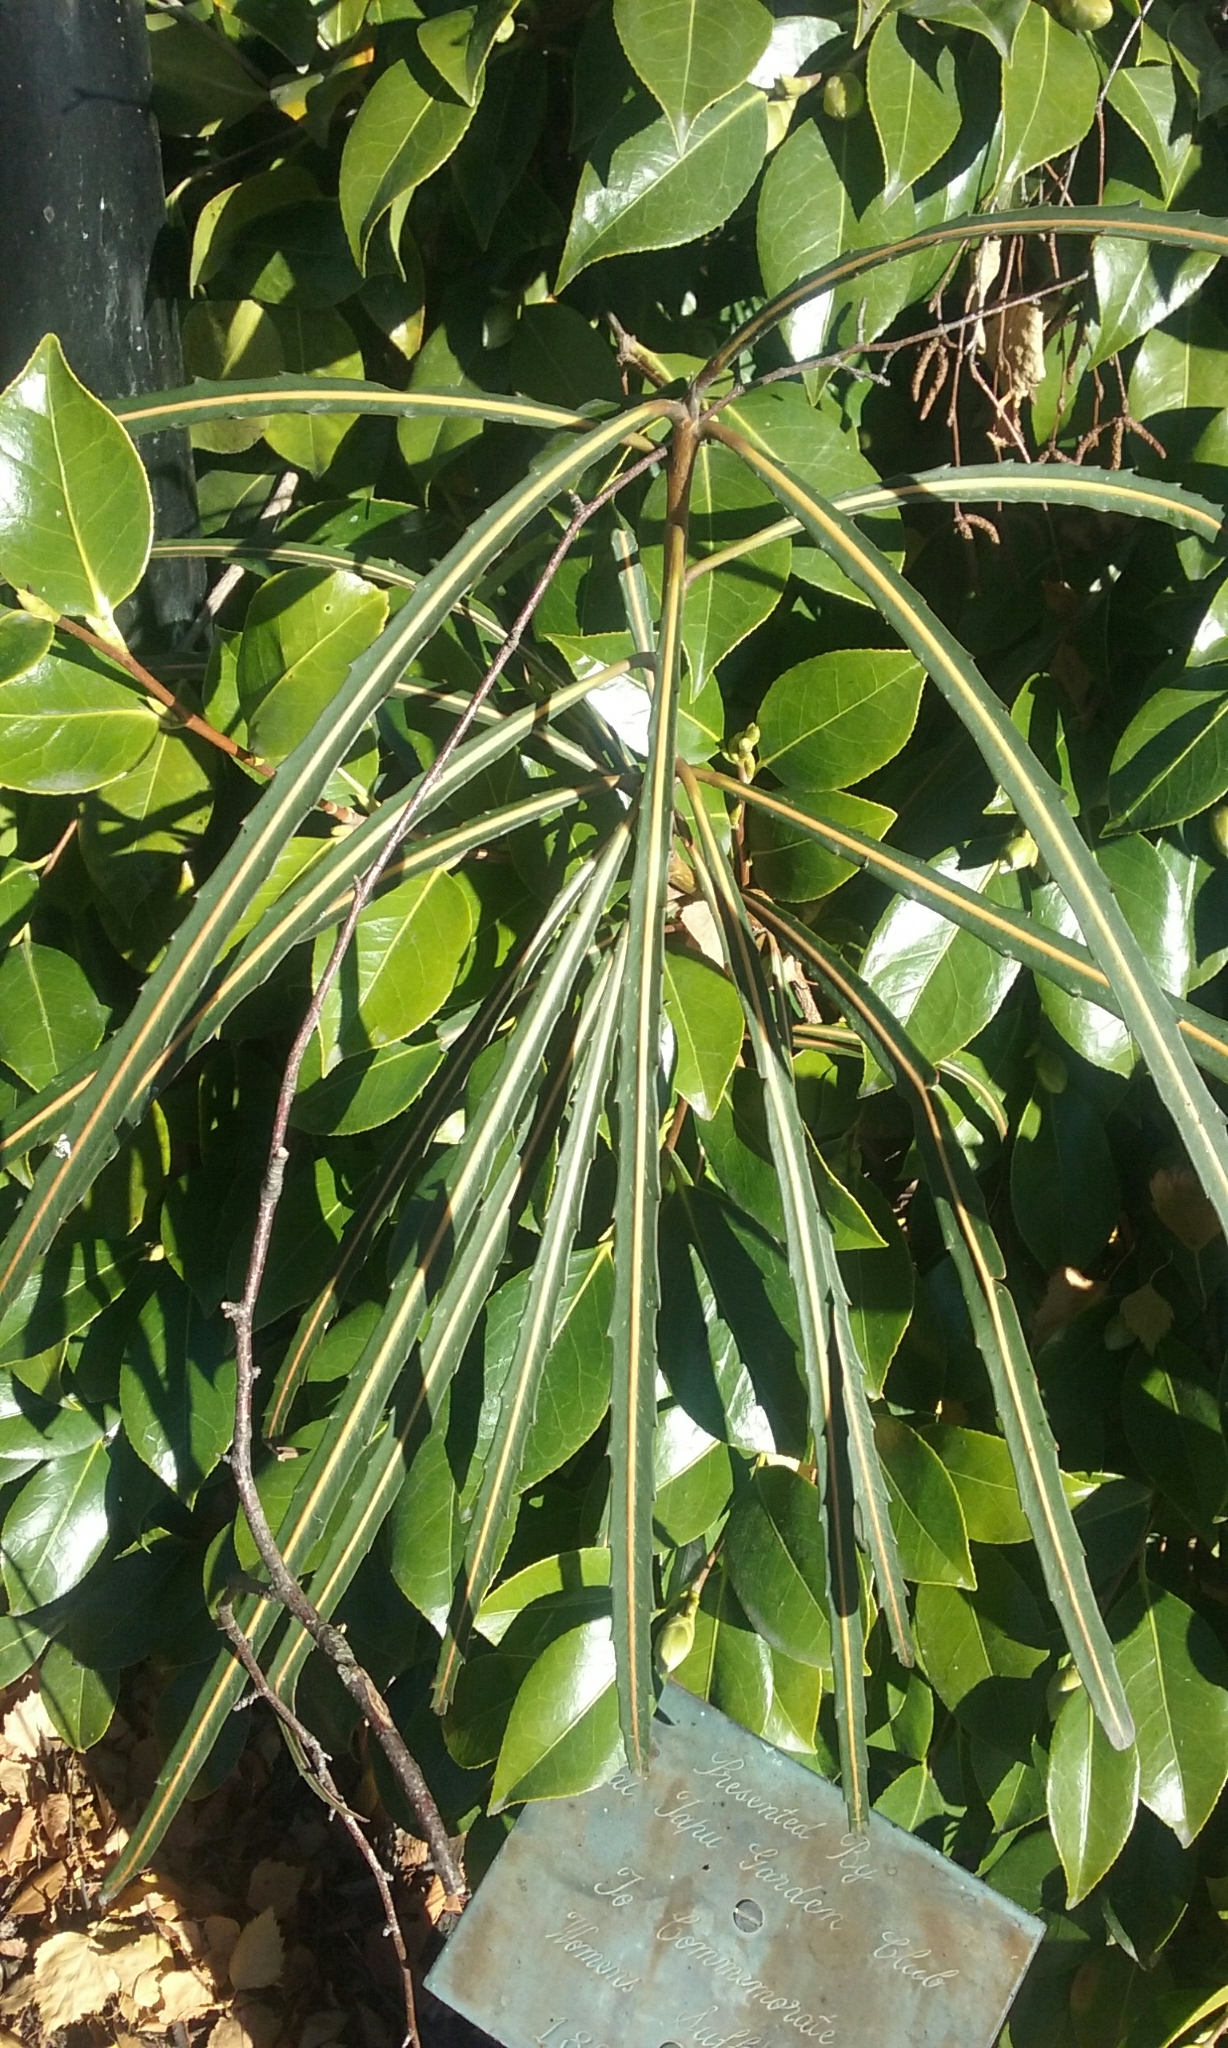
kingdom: Plantae
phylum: Tracheophyta
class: Magnoliopsida
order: Apiales
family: Araliaceae
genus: Pseudopanax
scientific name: Pseudopanax crassifolius
